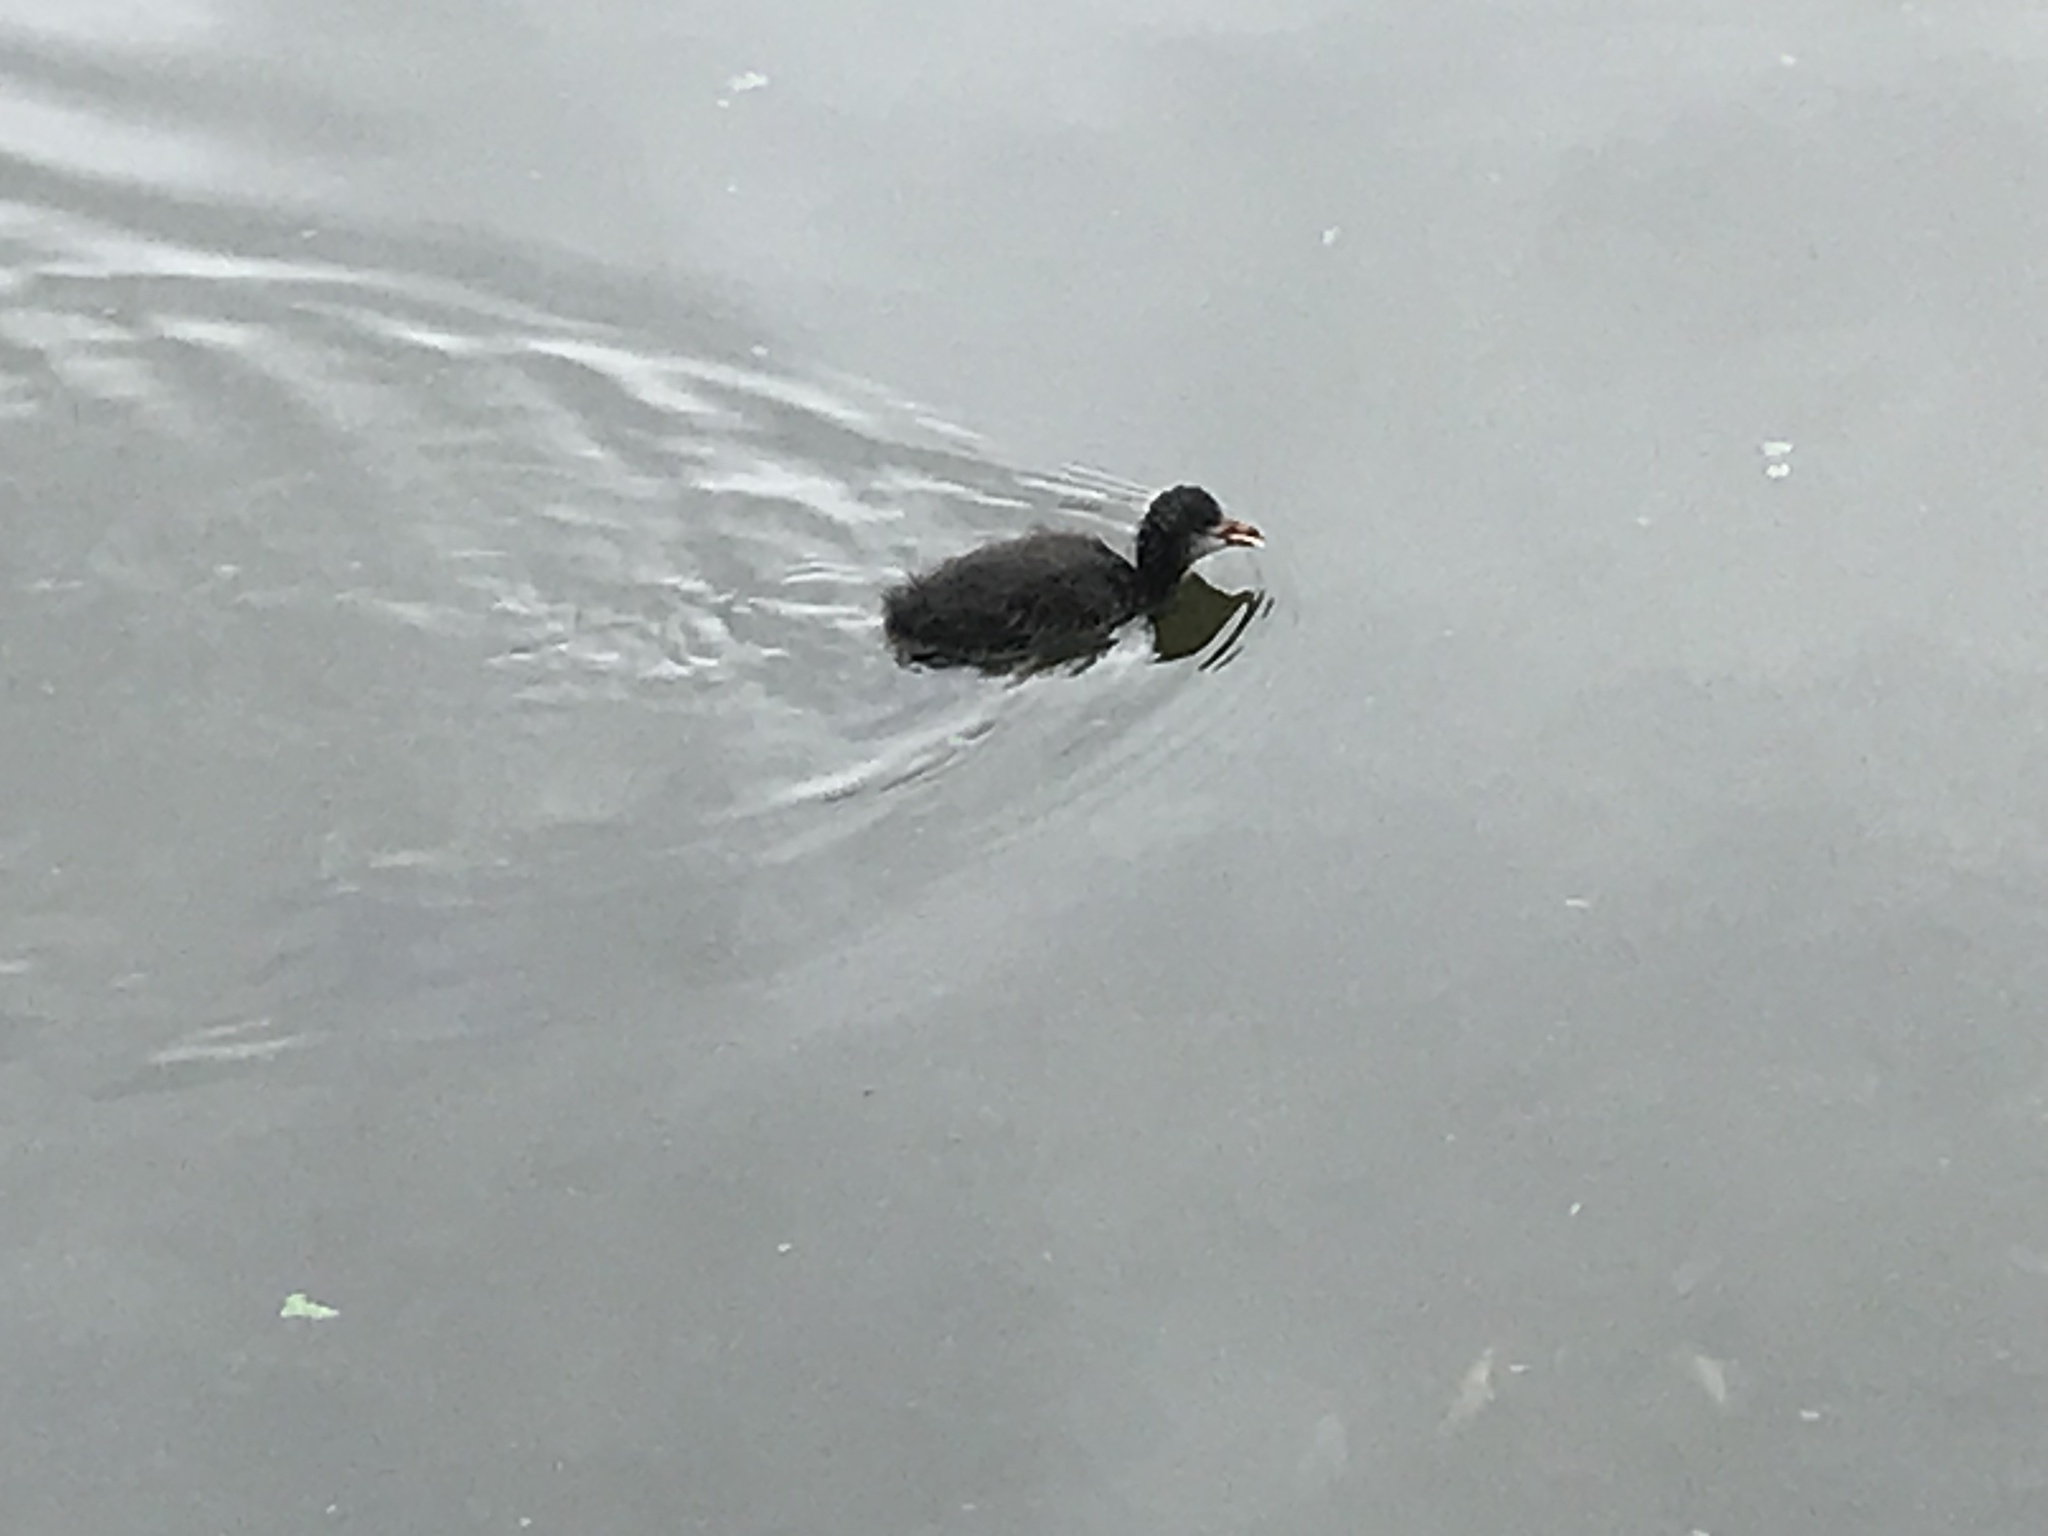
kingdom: Animalia
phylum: Chordata
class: Aves
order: Gruiformes
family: Rallidae
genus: Fulica
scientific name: Fulica atra
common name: Eurasian coot
